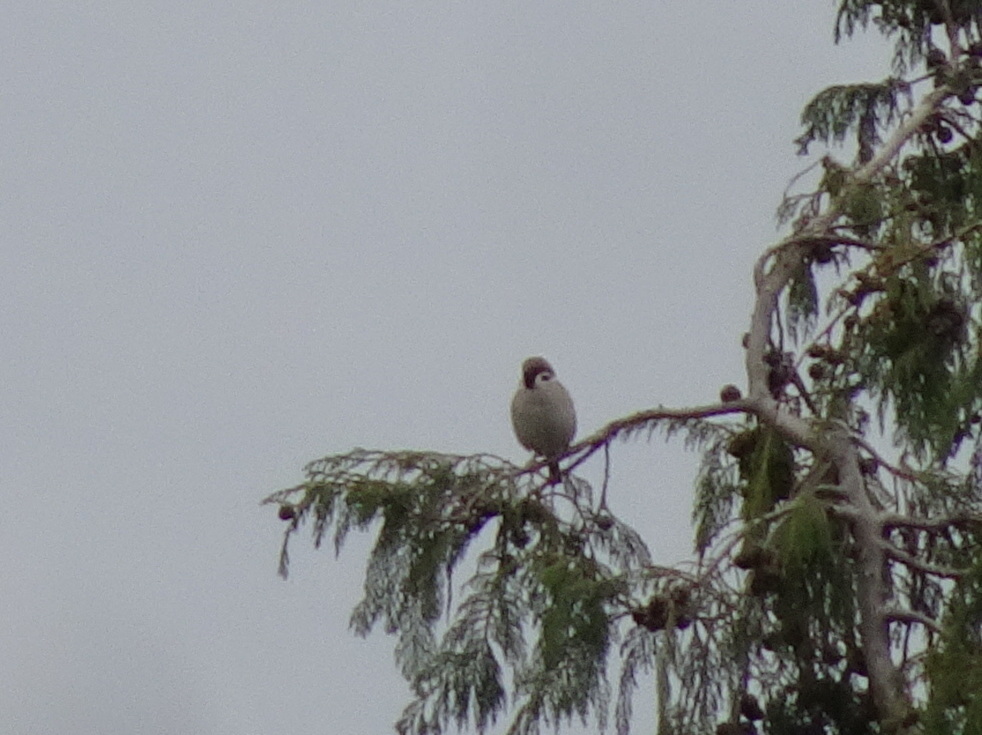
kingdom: Animalia
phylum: Chordata
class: Aves
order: Passeriformes
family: Passeridae
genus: Passer
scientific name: Passer montanus
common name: Eurasian tree sparrow
